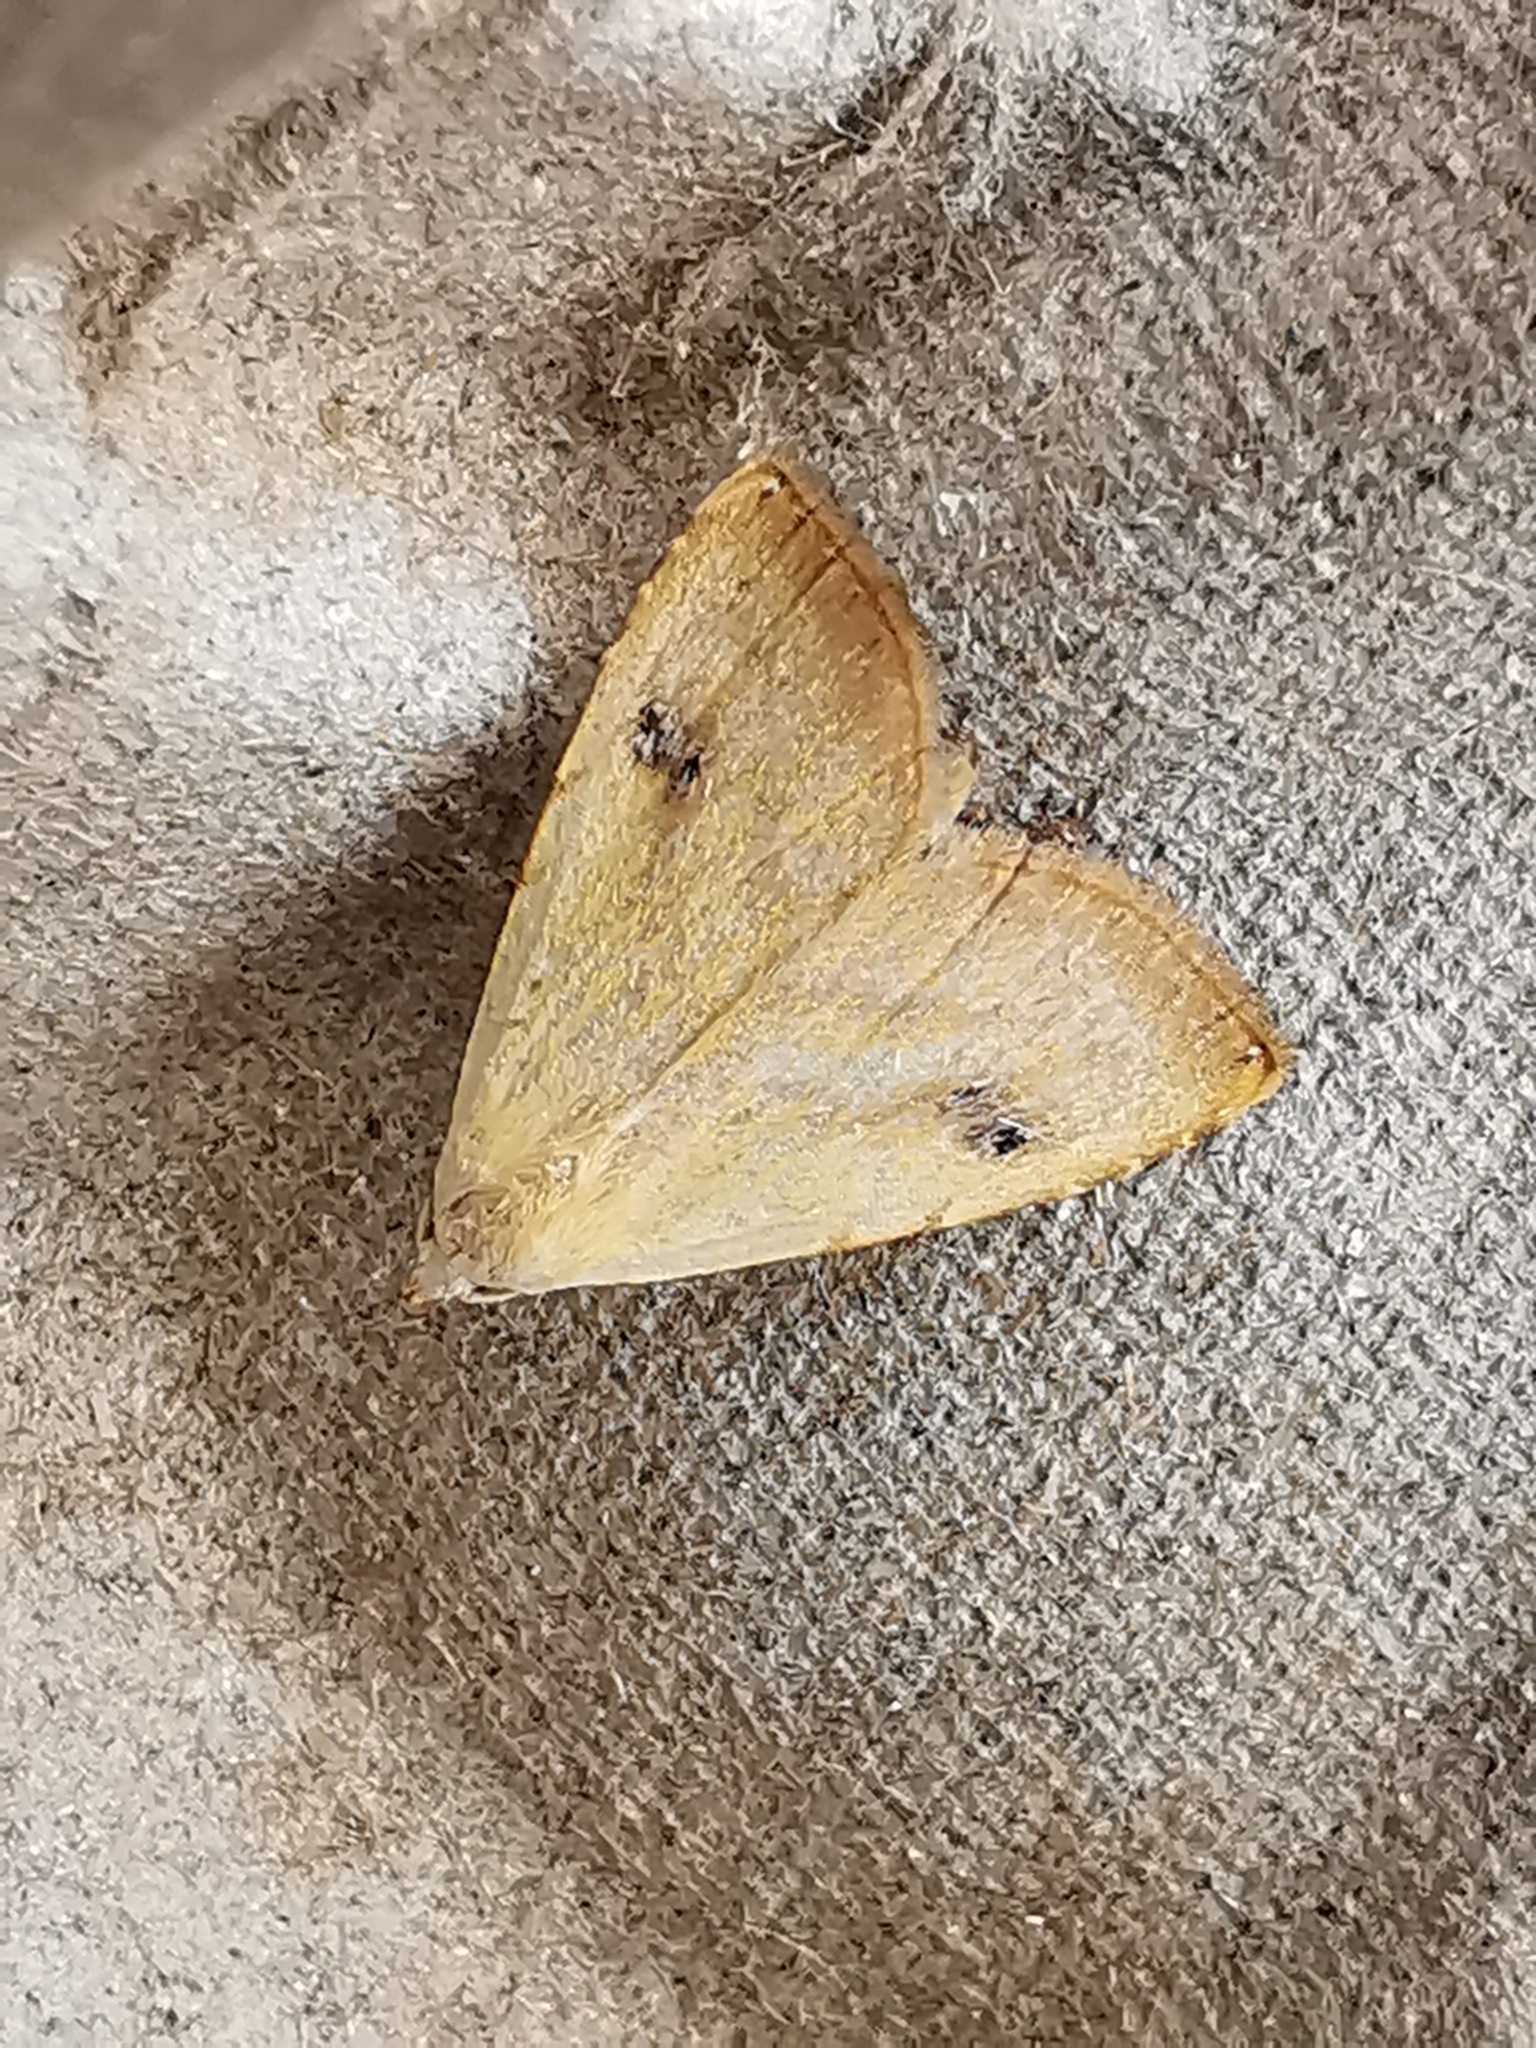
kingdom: Animalia
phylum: Arthropoda
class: Insecta
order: Lepidoptera
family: Erebidae
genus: Rivula
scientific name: Rivula sericealis
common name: Straw dot
